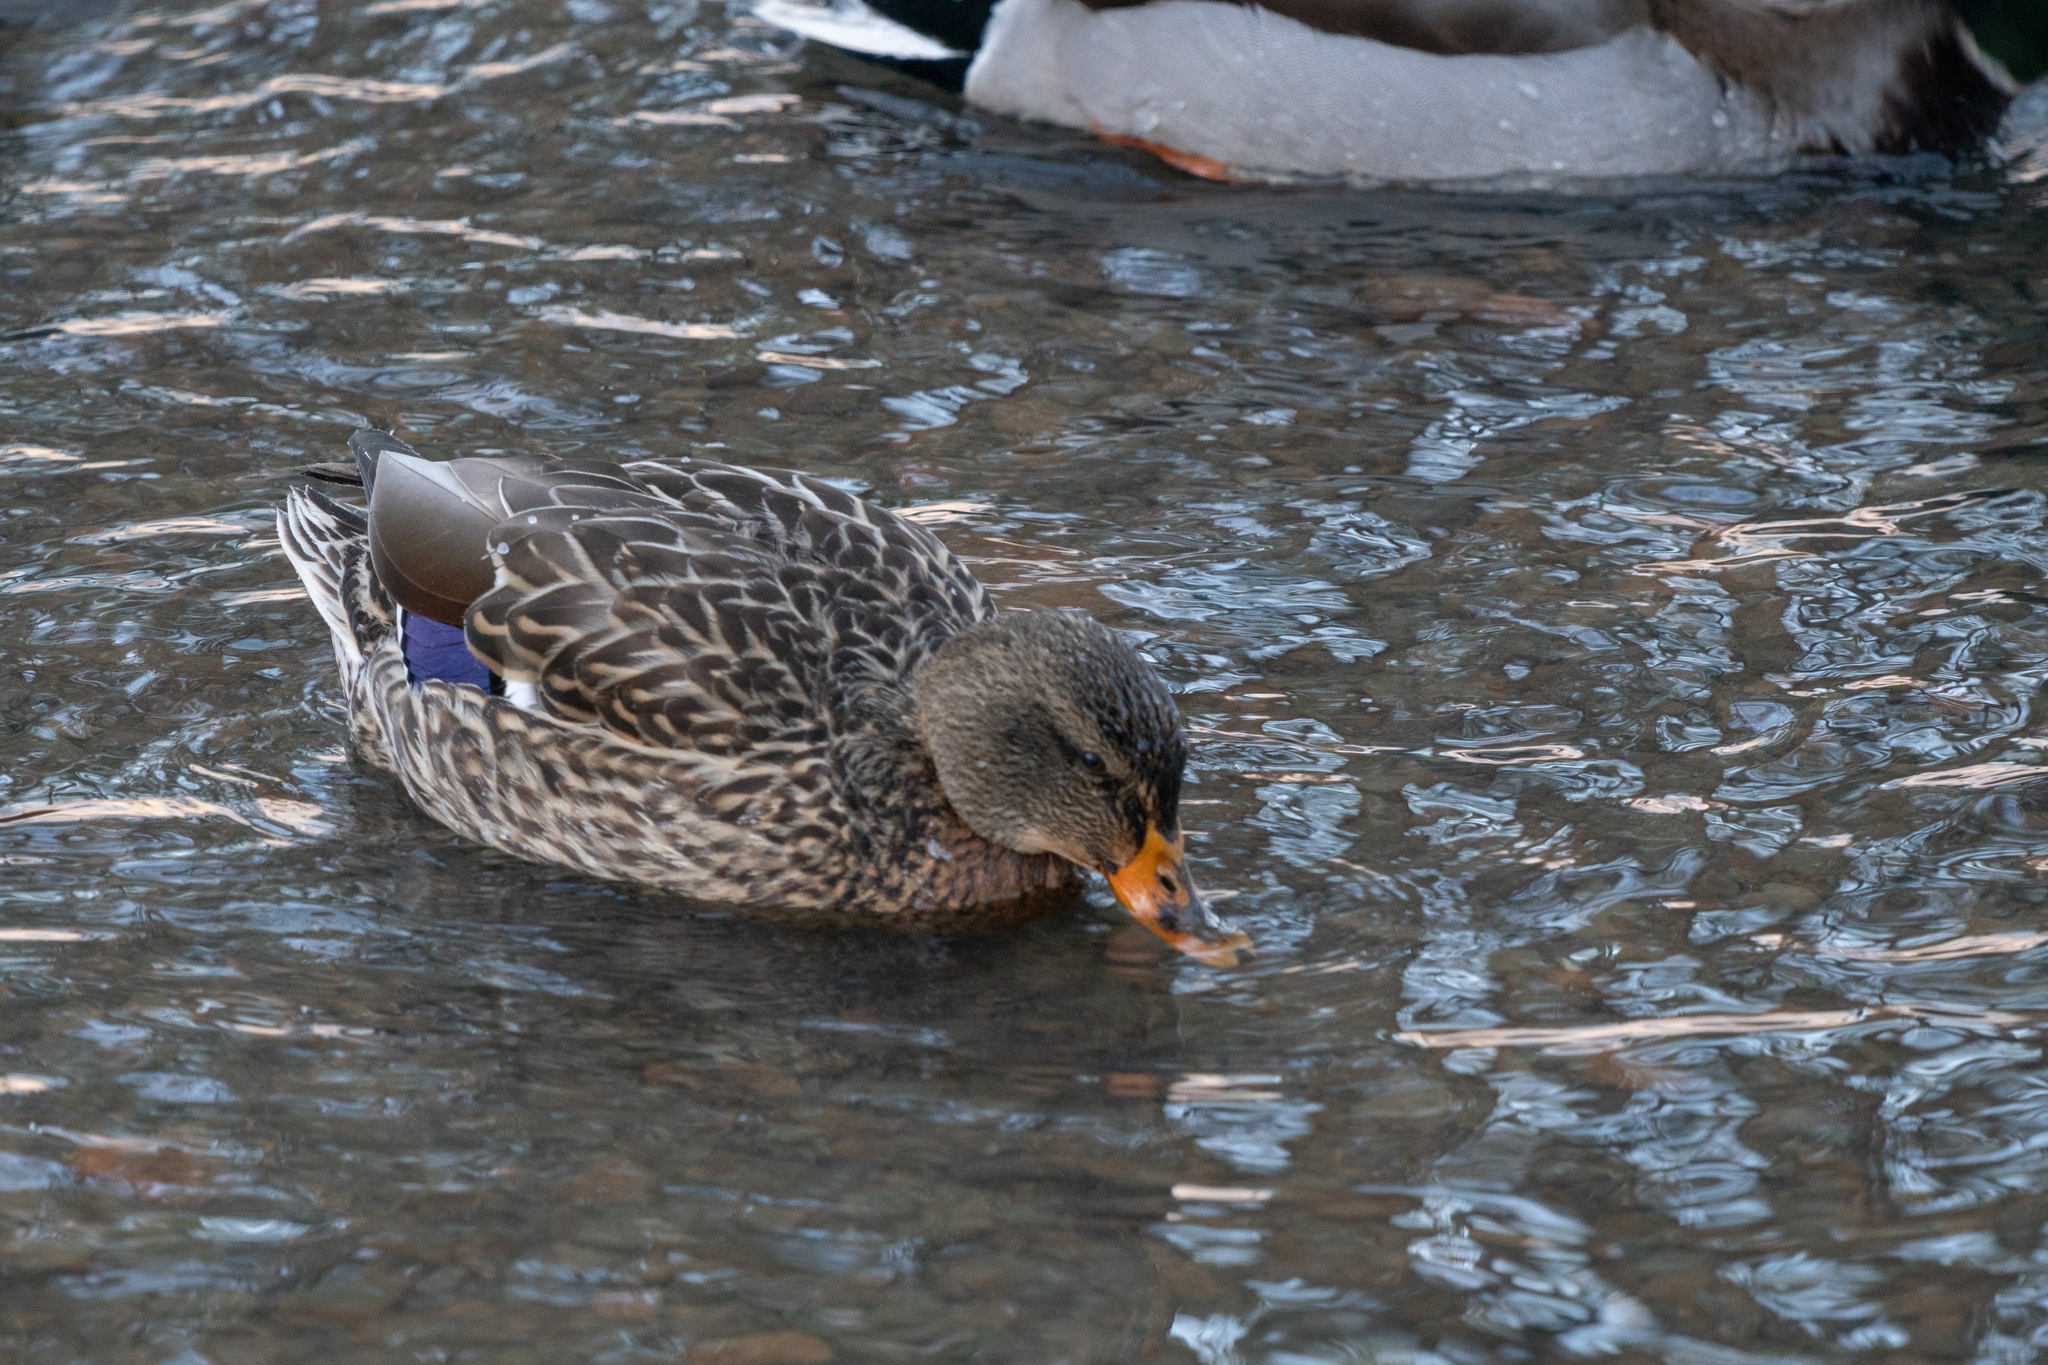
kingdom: Animalia
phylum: Chordata
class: Aves
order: Anseriformes
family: Anatidae
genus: Anas
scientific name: Anas platyrhynchos
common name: Mallard
